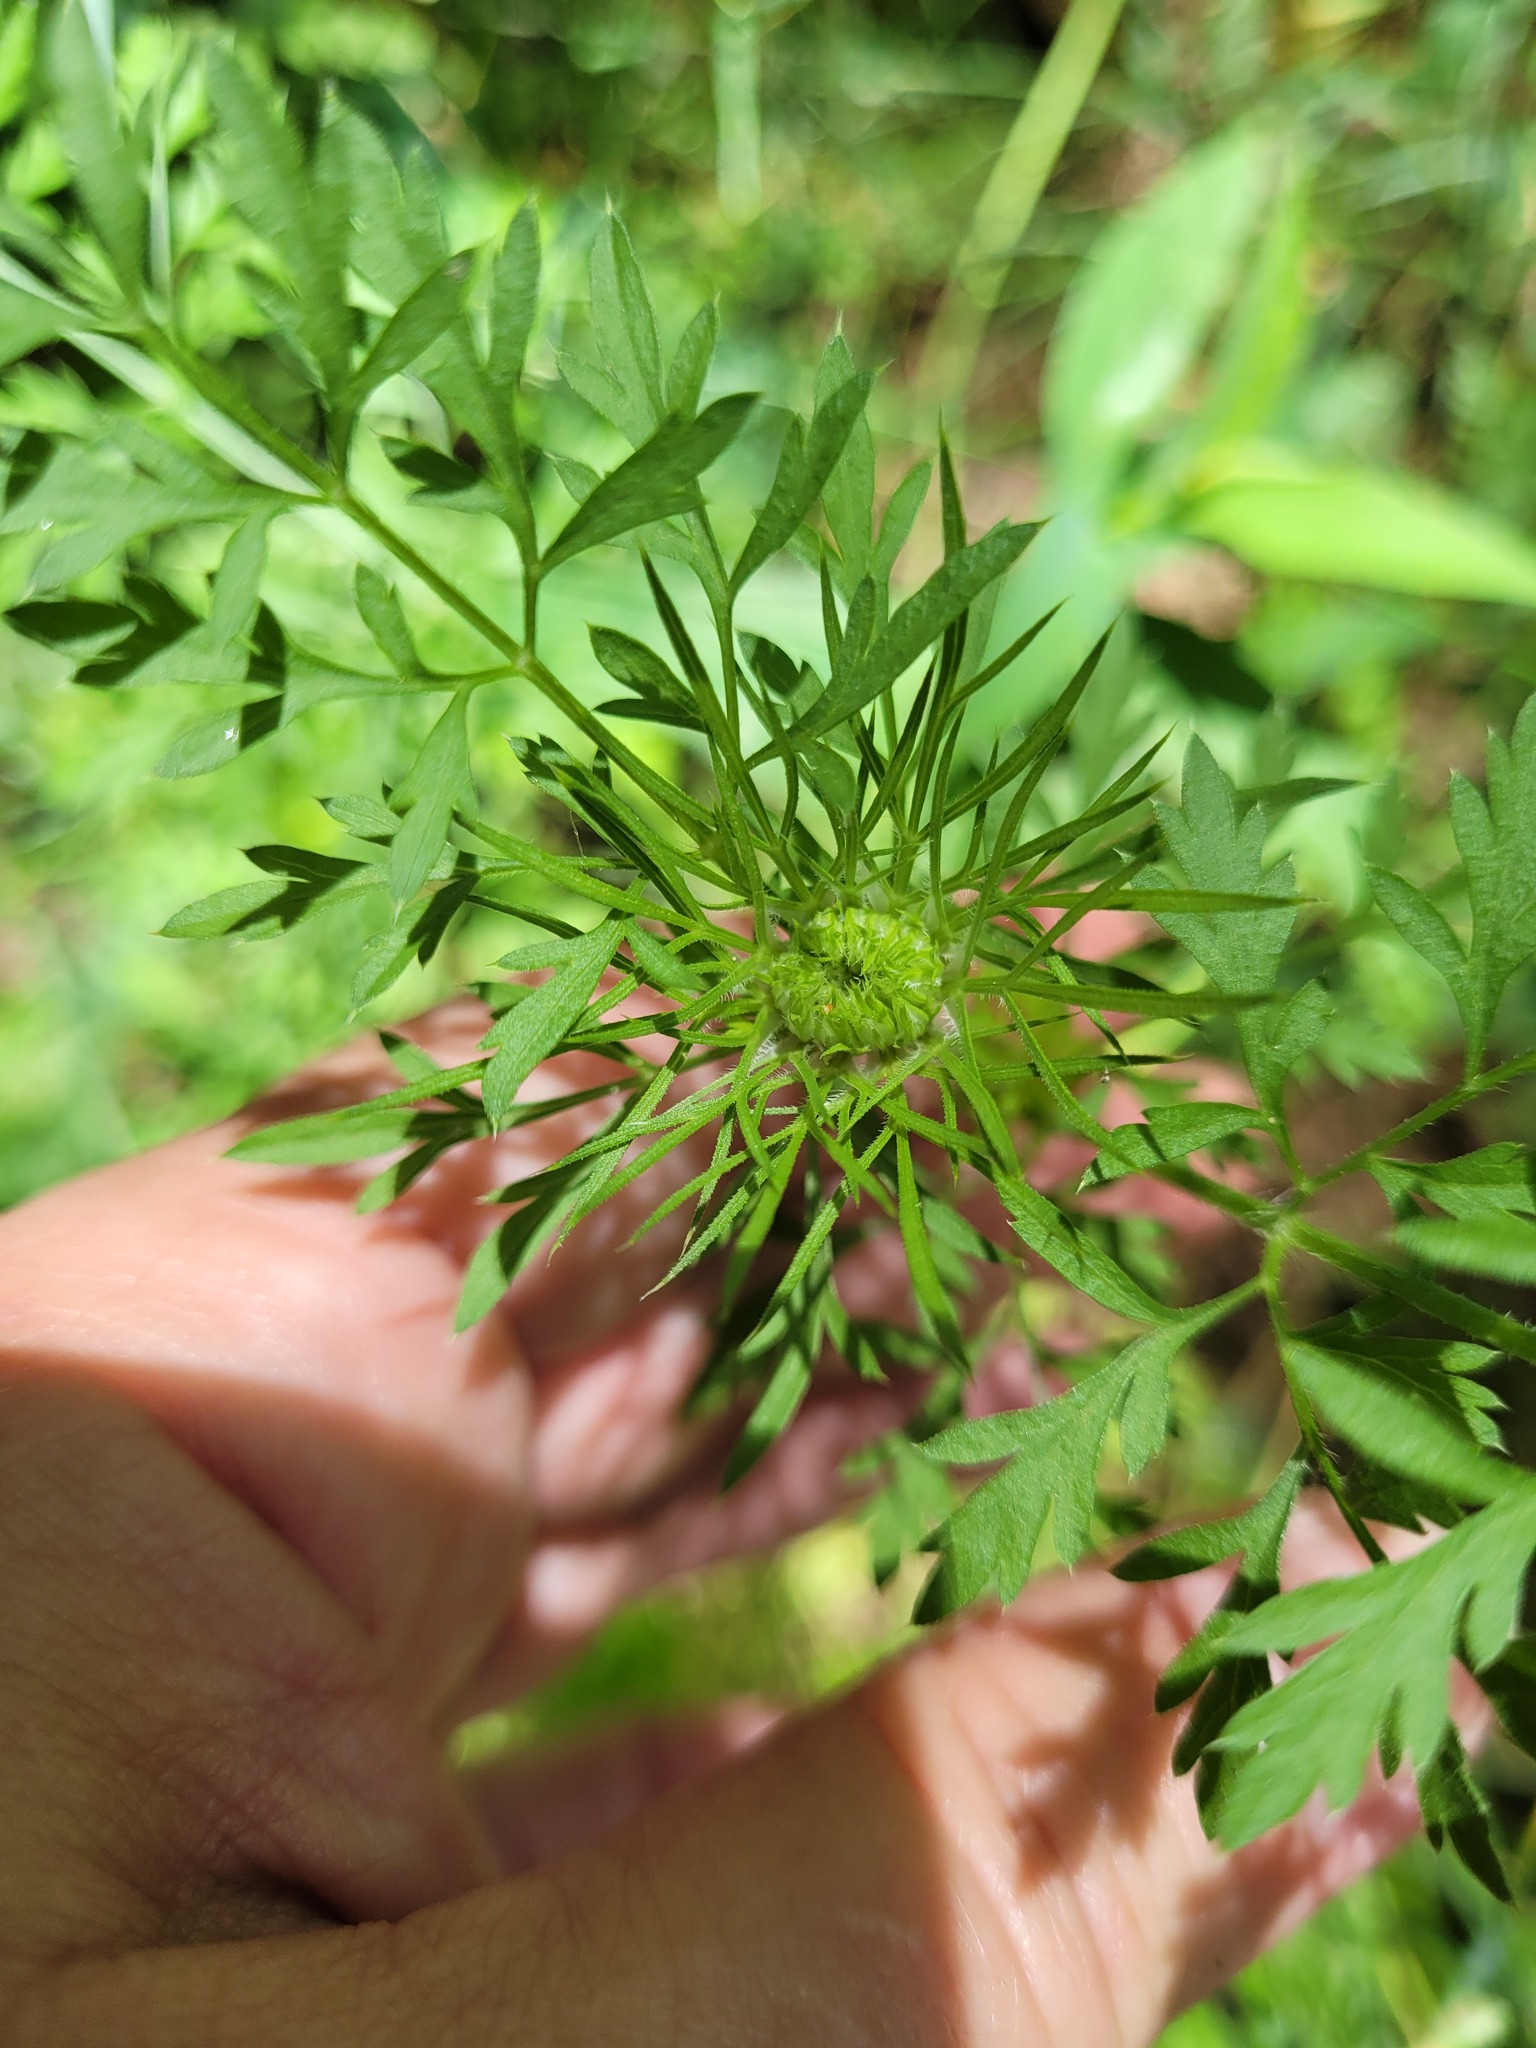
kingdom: Plantae
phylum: Tracheophyta
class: Magnoliopsida
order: Apiales
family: Apiaceae
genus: Daucus
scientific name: Daucus carota
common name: Wild carrot
